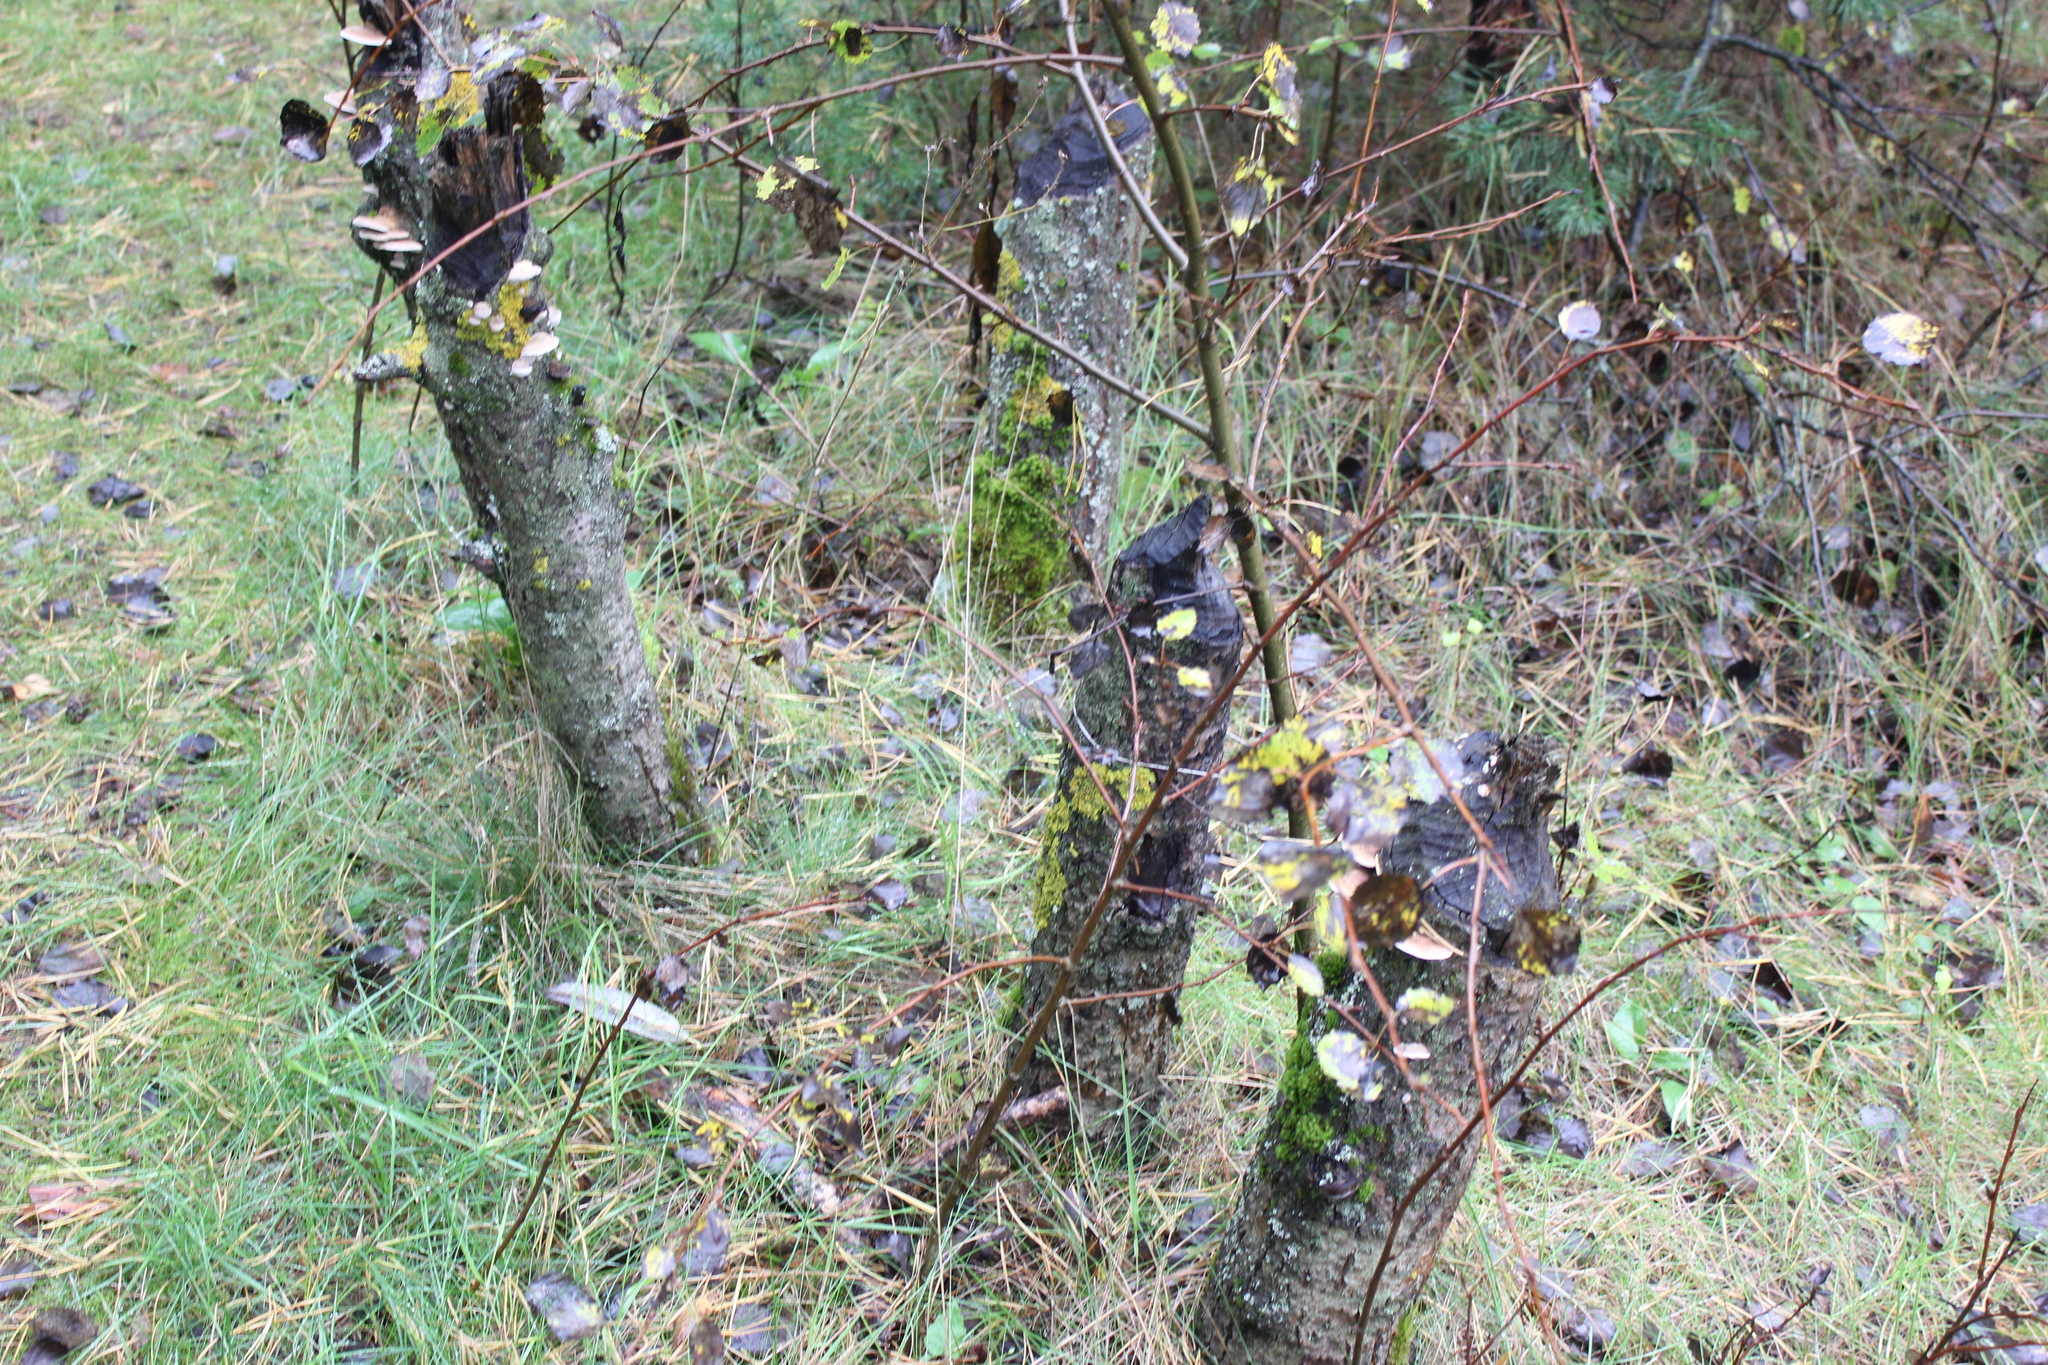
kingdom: Animalia
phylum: Chordata
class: Mammalia
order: Rodentia
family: Castoridae
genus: Castor
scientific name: Castor fiber
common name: Eurasian beaver
